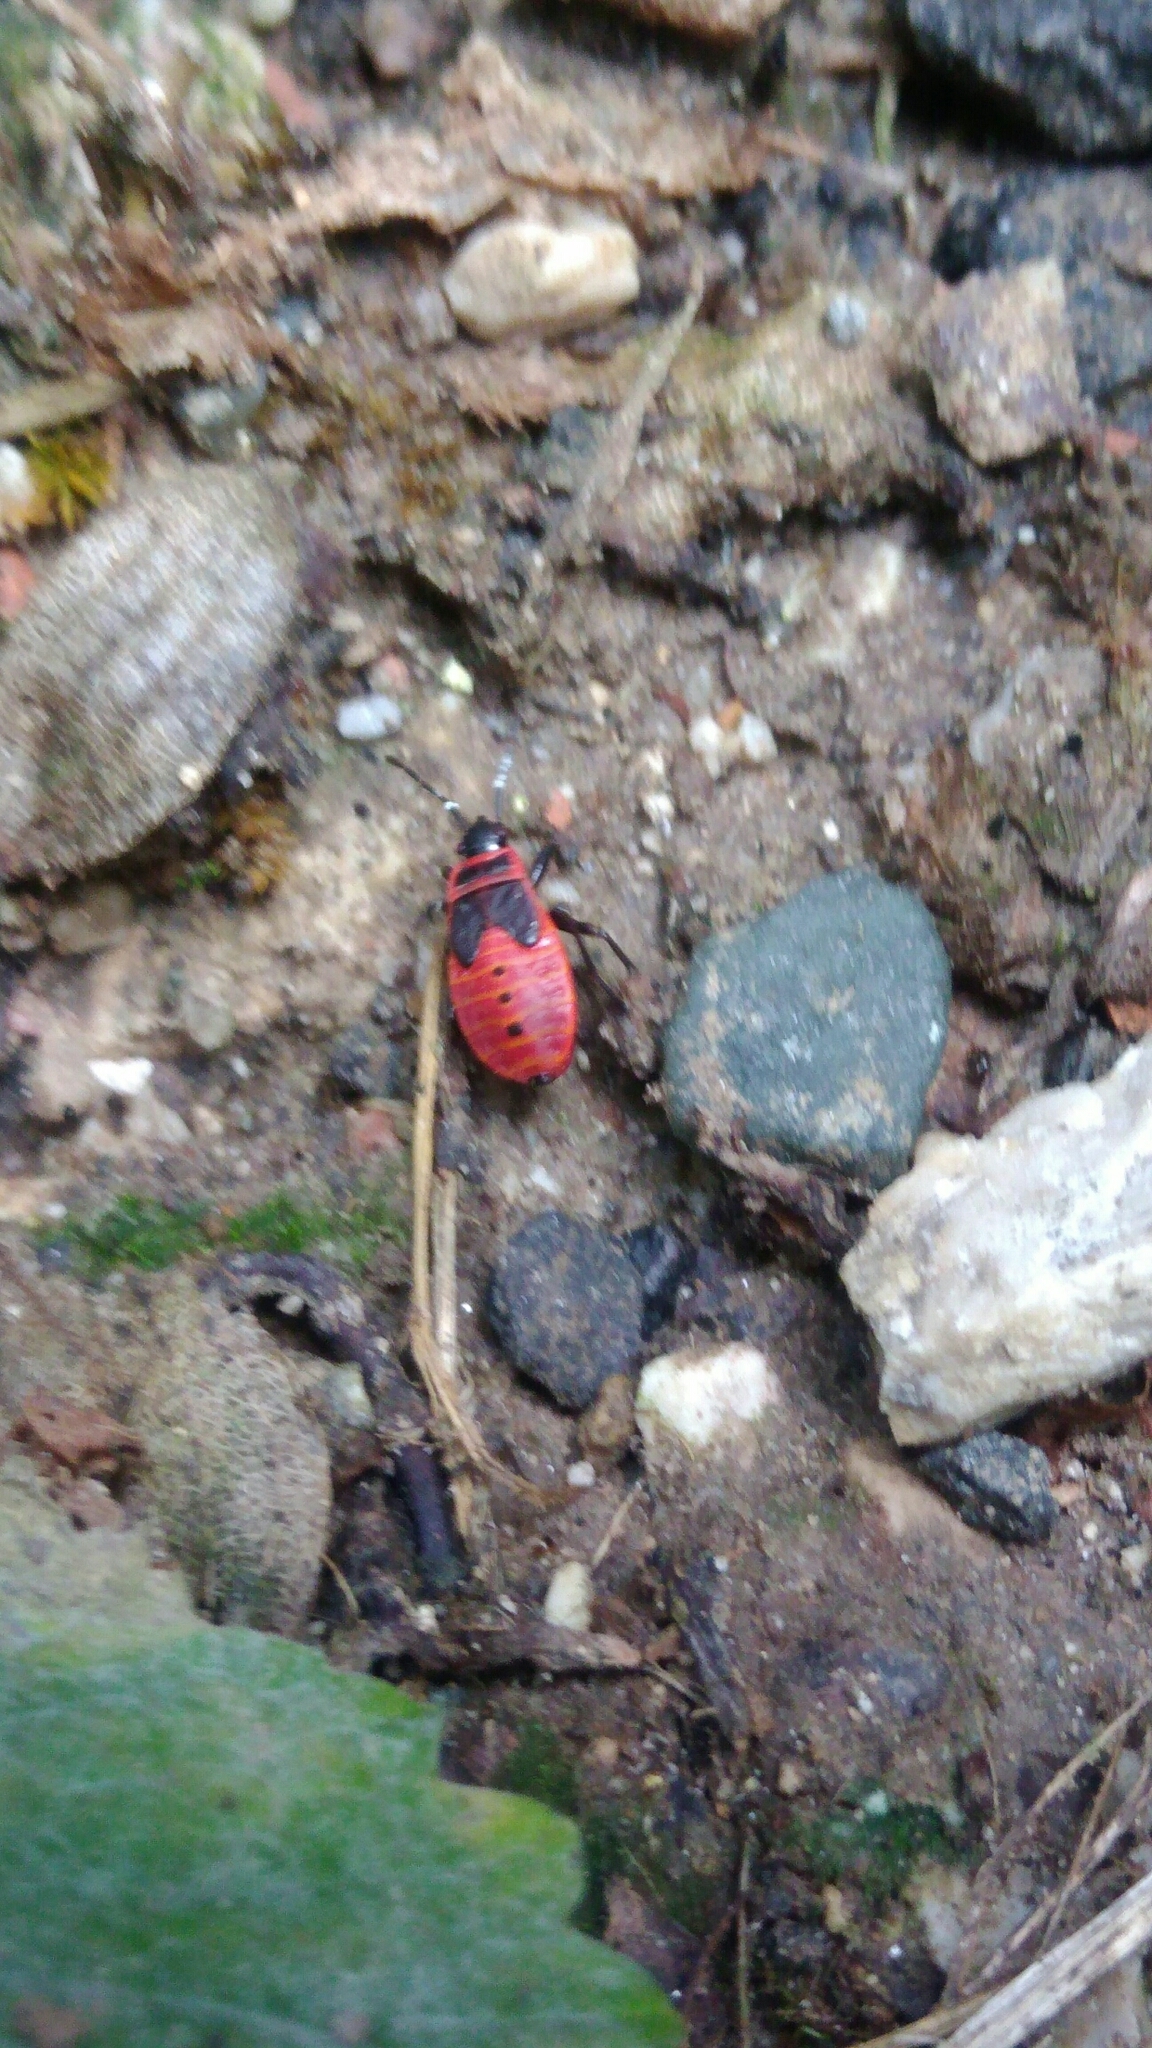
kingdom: Animalia
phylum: Arthropoda
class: Insecta
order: Hemiptera
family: Pyrrhocoridae
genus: Pyrrhocoris
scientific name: Pyrrhocoris apterus
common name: Firebug
